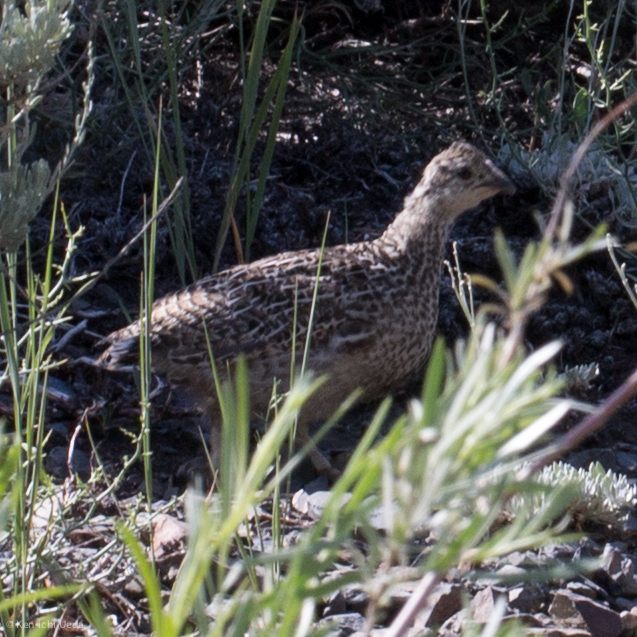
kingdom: Animalia
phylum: Chordata
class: Aves
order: Galliformes
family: Phasianidae
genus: Dendragapus
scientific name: Dendragapus fuliginosus
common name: Sooty grouse
